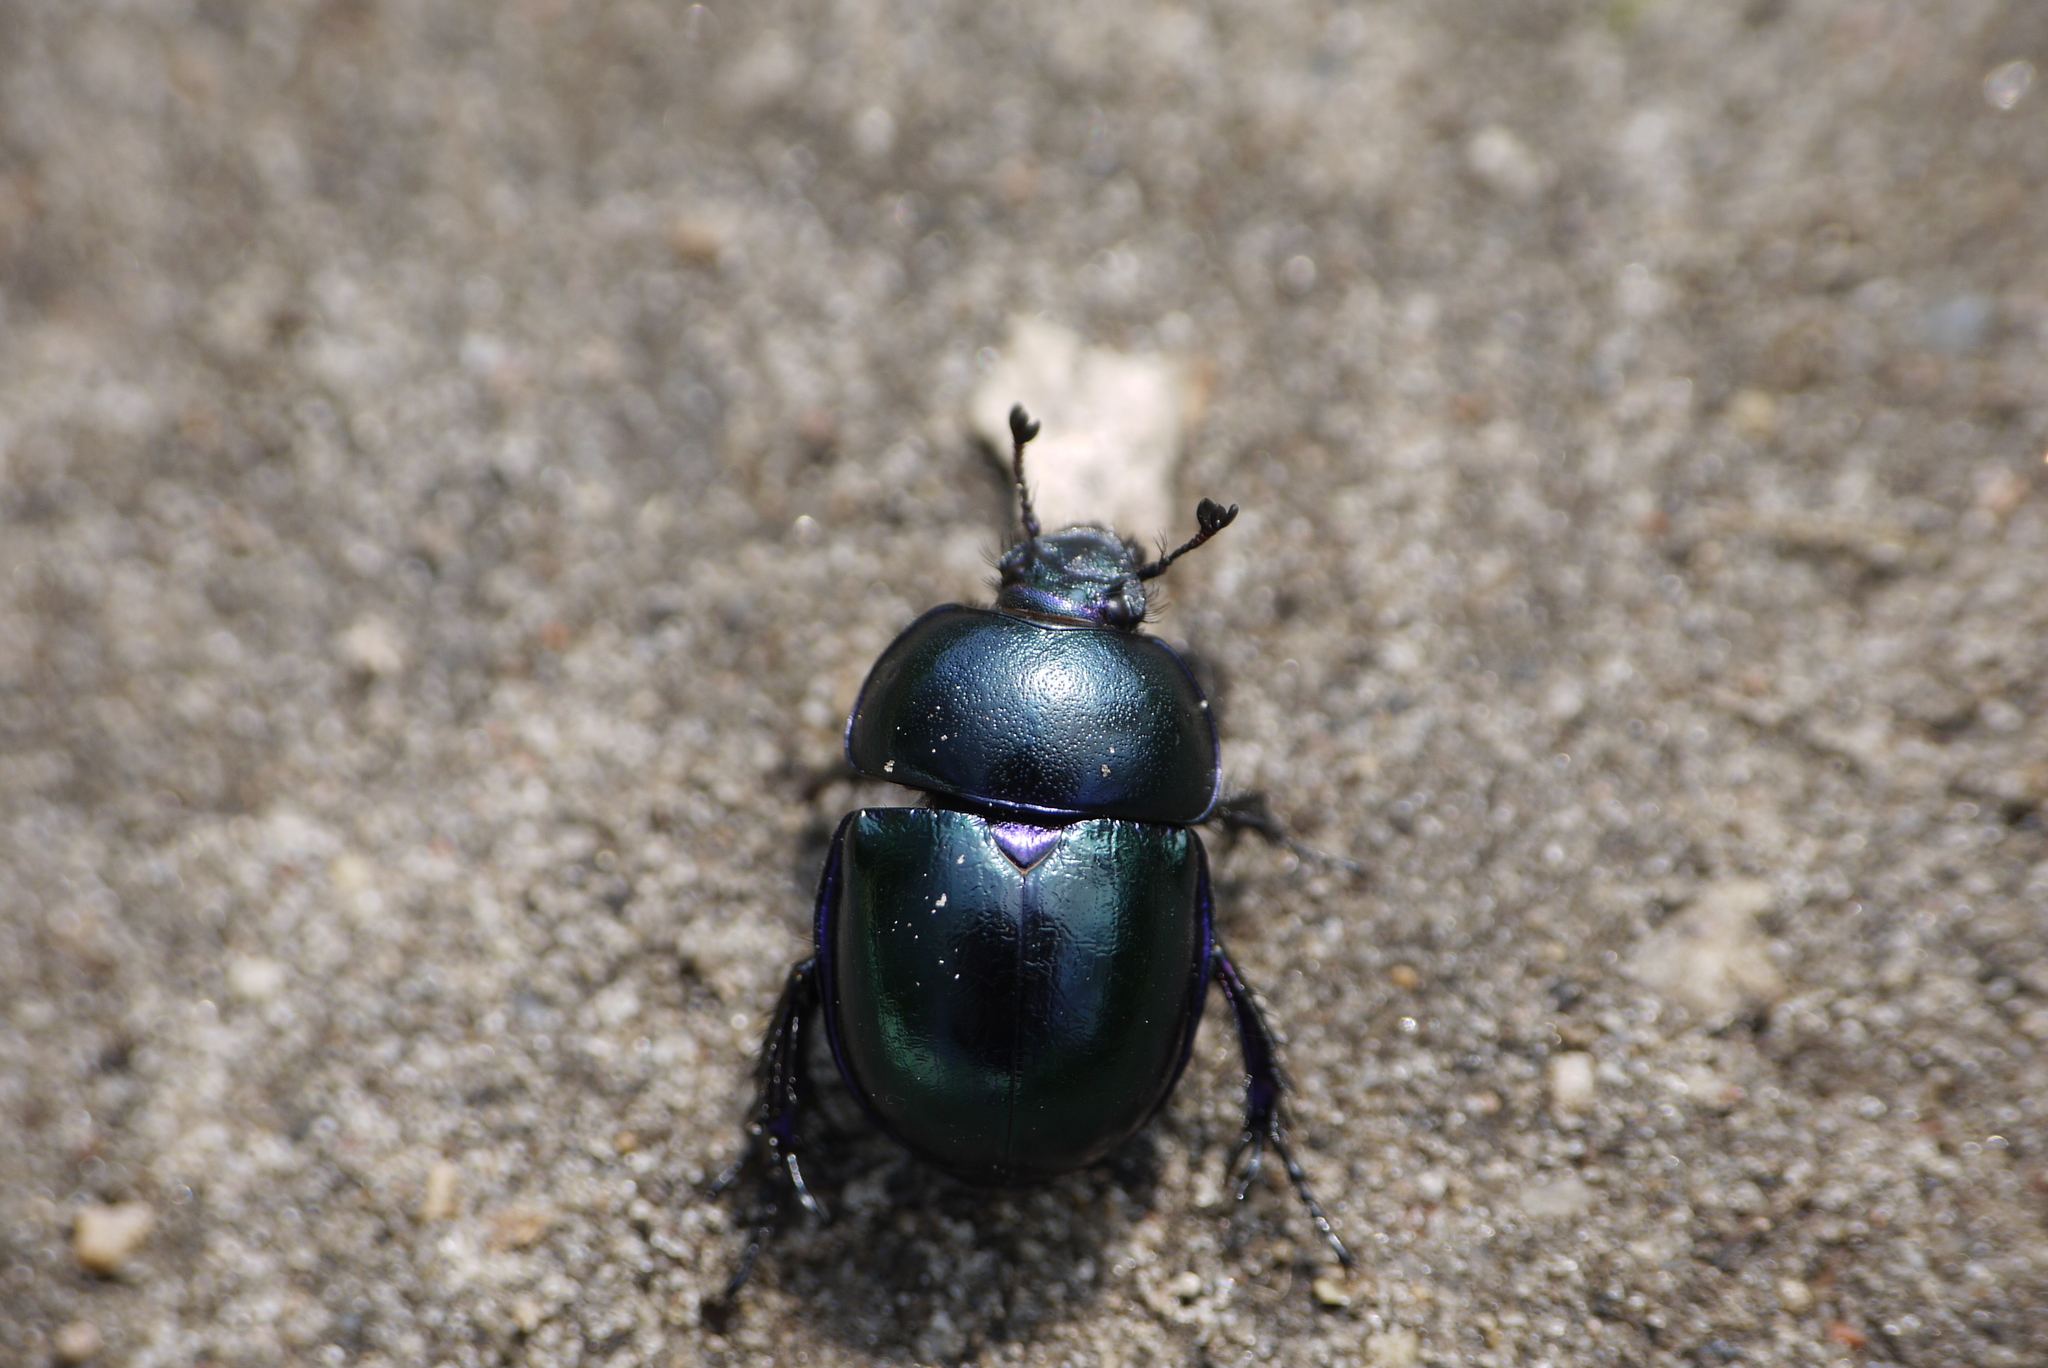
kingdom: Animalia
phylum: Arthropoda
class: Insecta
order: Coleoptera
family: Geotrupidae
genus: Trypocopris
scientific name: Trypocopris vernalis
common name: Spring dumbledor
